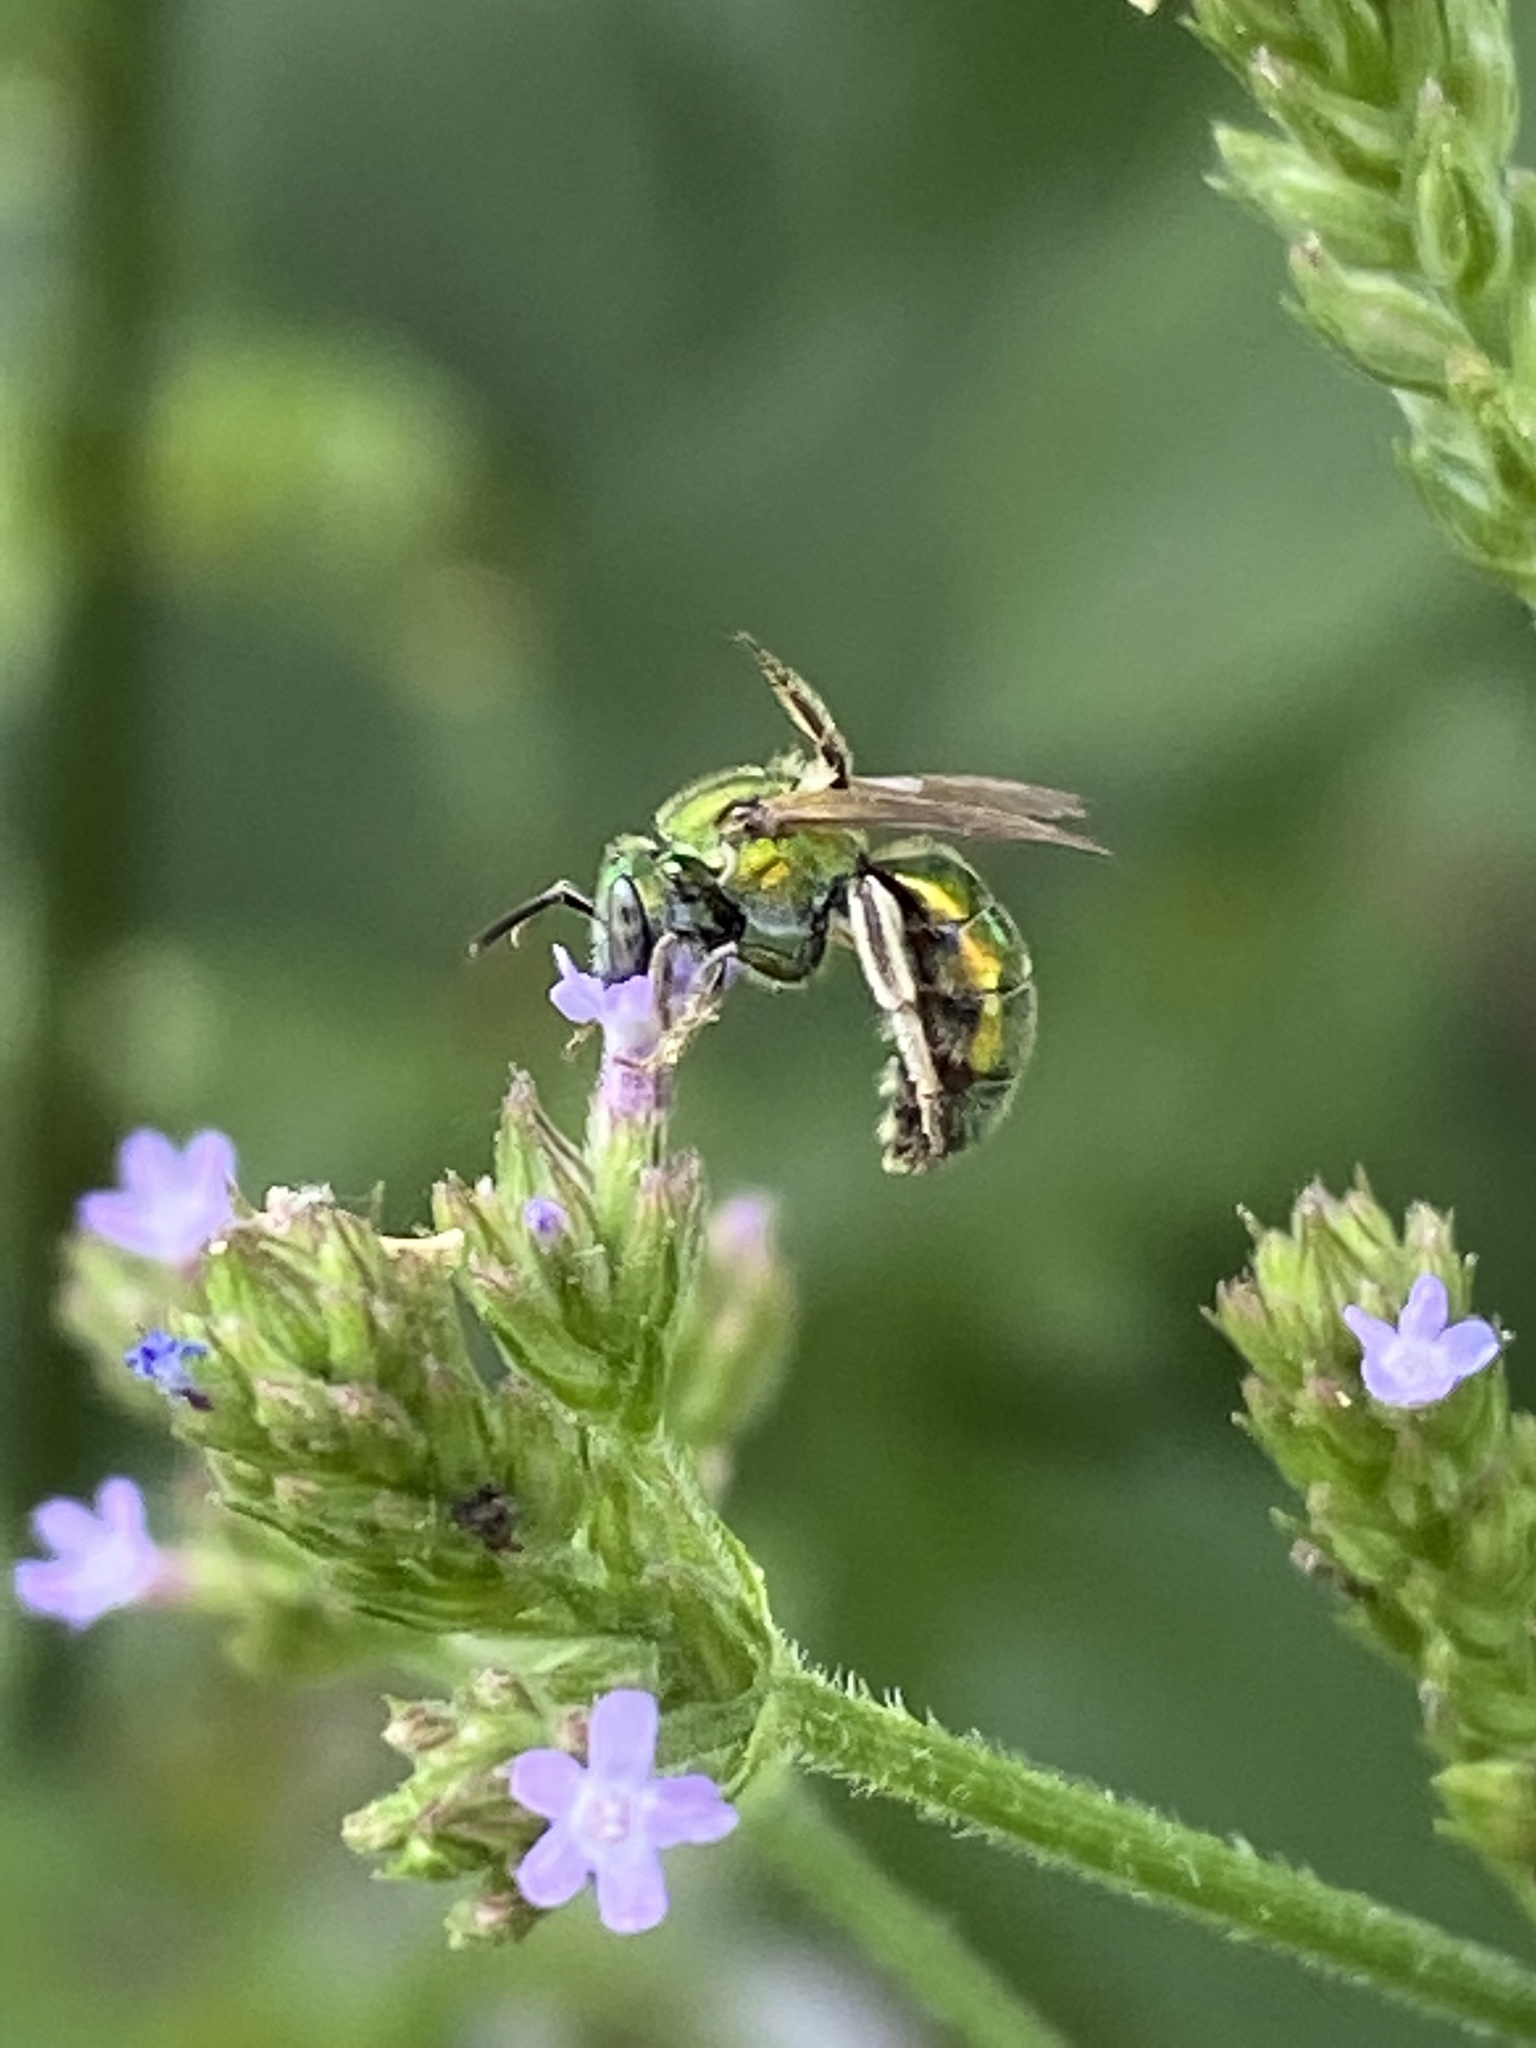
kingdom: Animalia
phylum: Arthropoda
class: Insecta
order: Hymenoptera
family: Halictidae
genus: Augochlora
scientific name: Augochlora pura
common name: Pure green sweat bee
